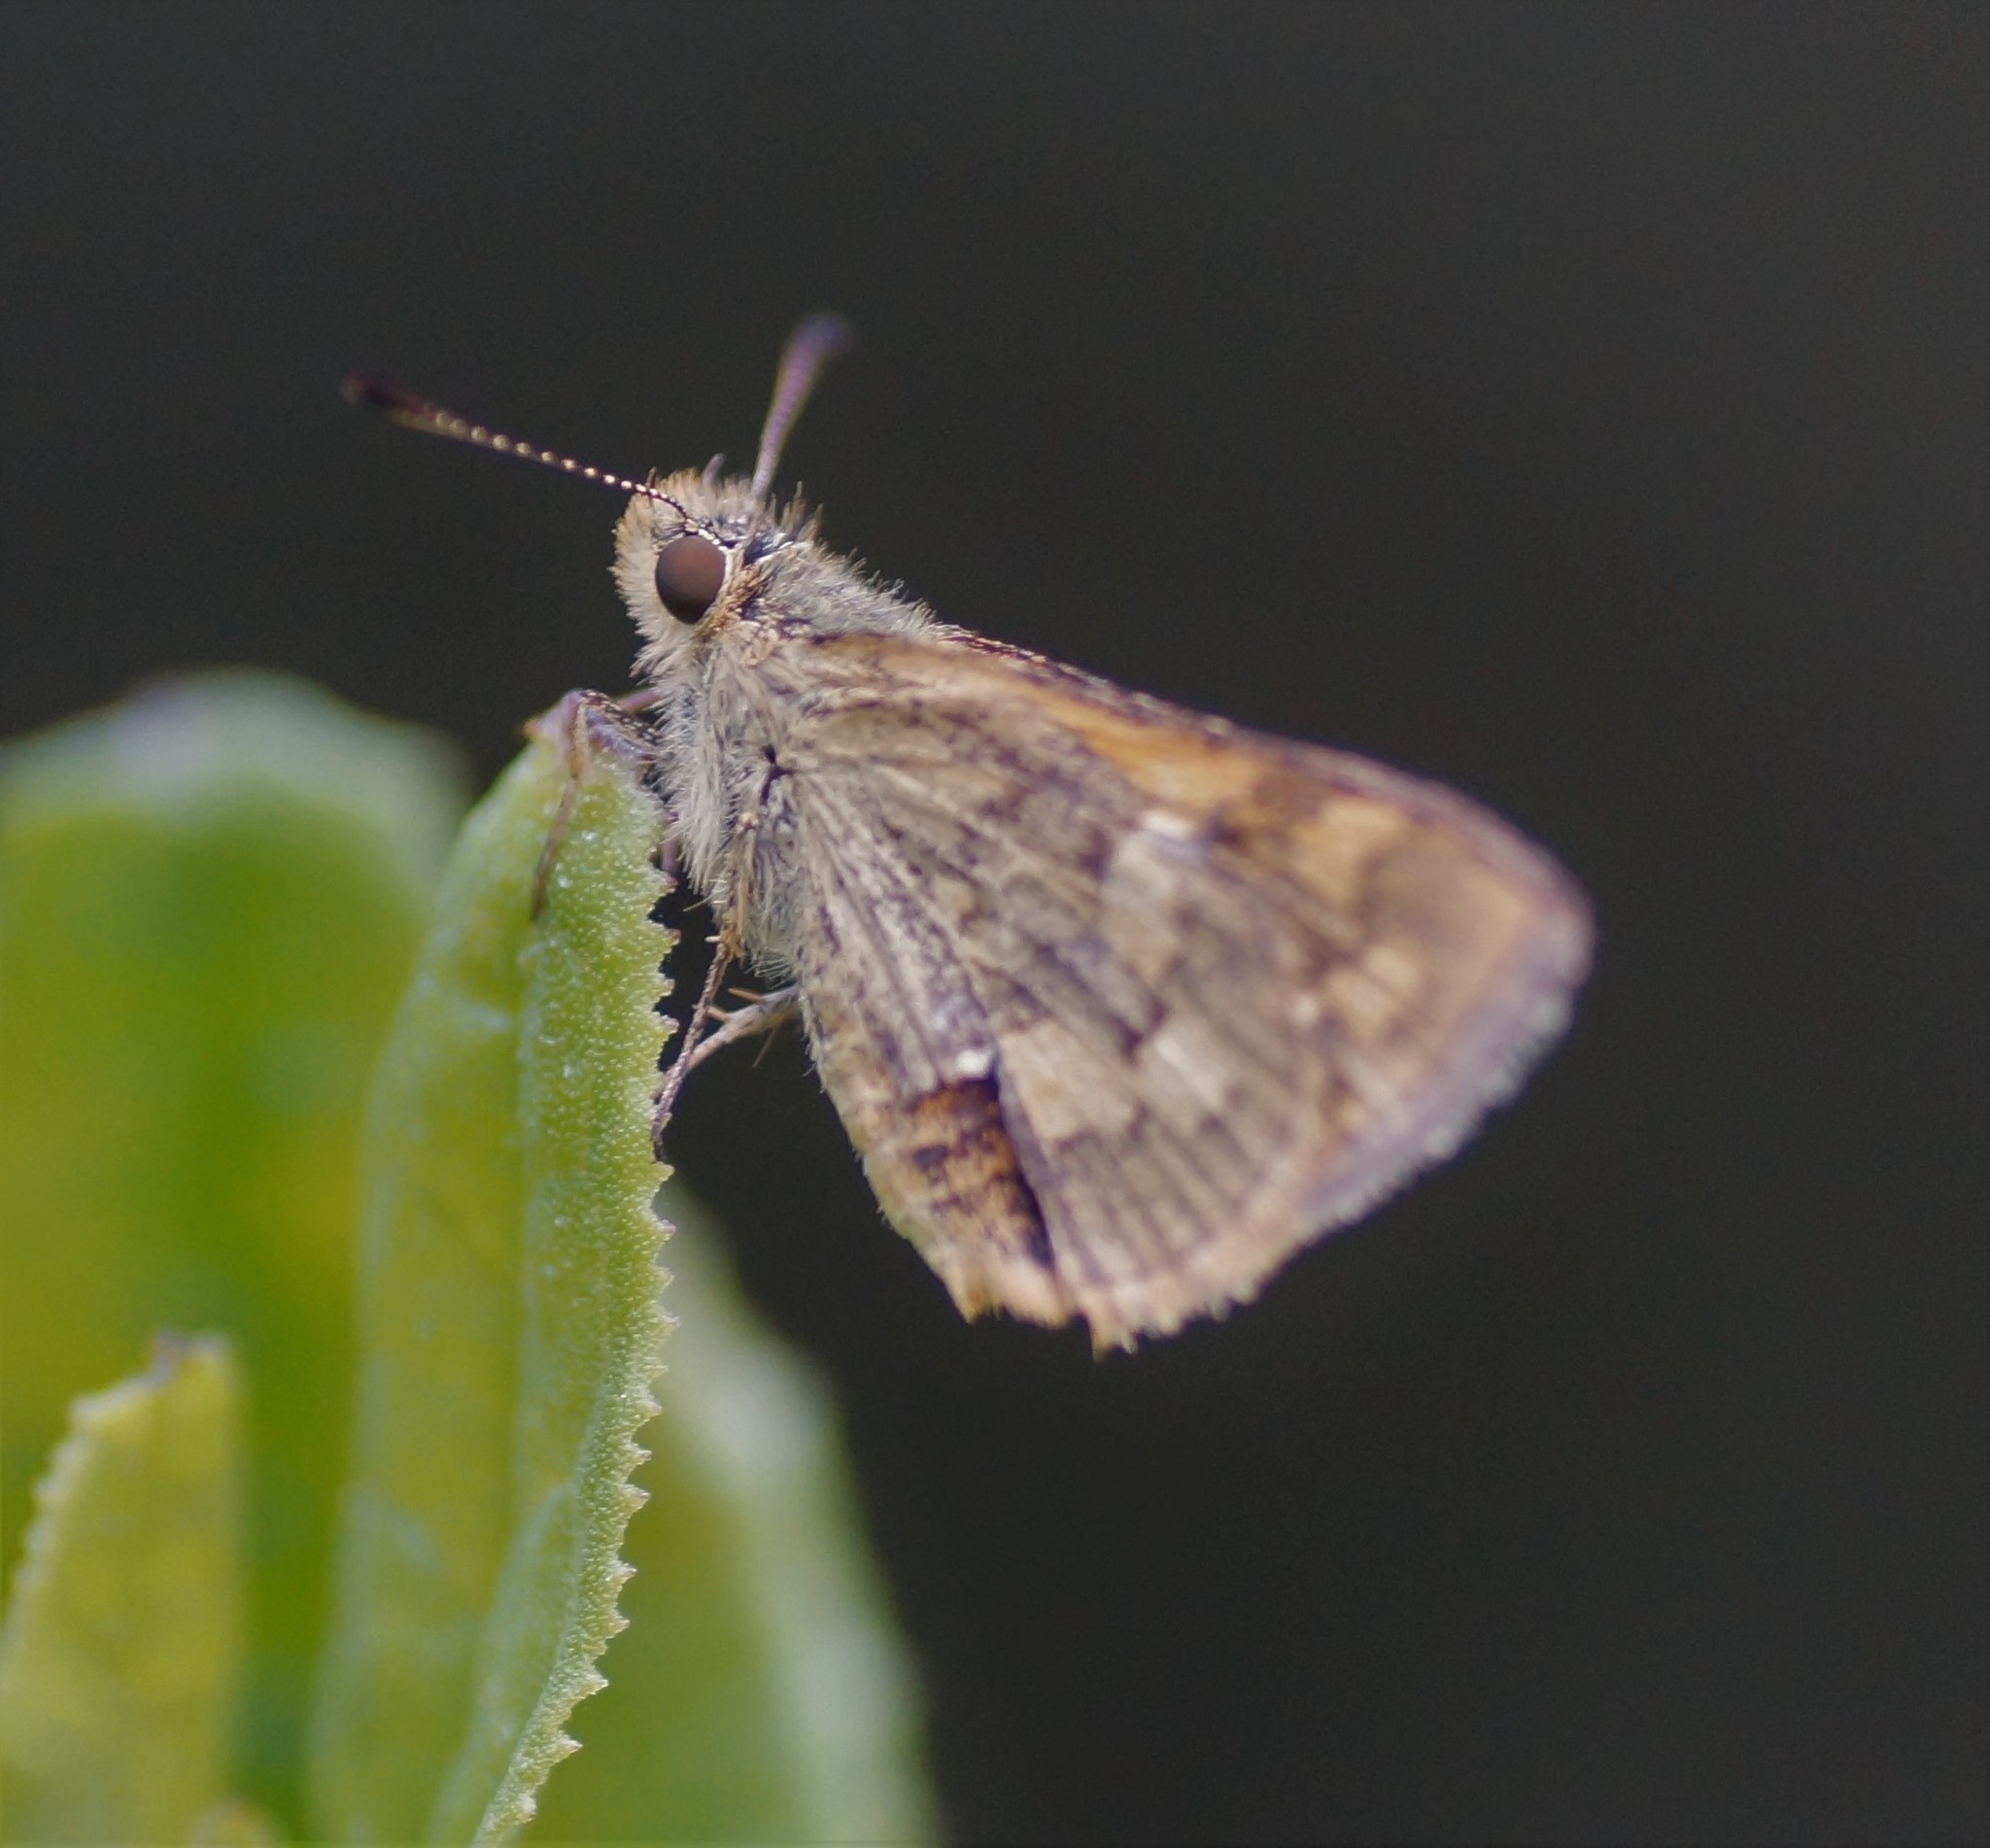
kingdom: Animalia
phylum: Arthropoda
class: Insecta
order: Lepidoptera
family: Hesperiidae
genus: Ocybadistes
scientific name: Ocybadistes walkeri
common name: Yellow-banded dart
